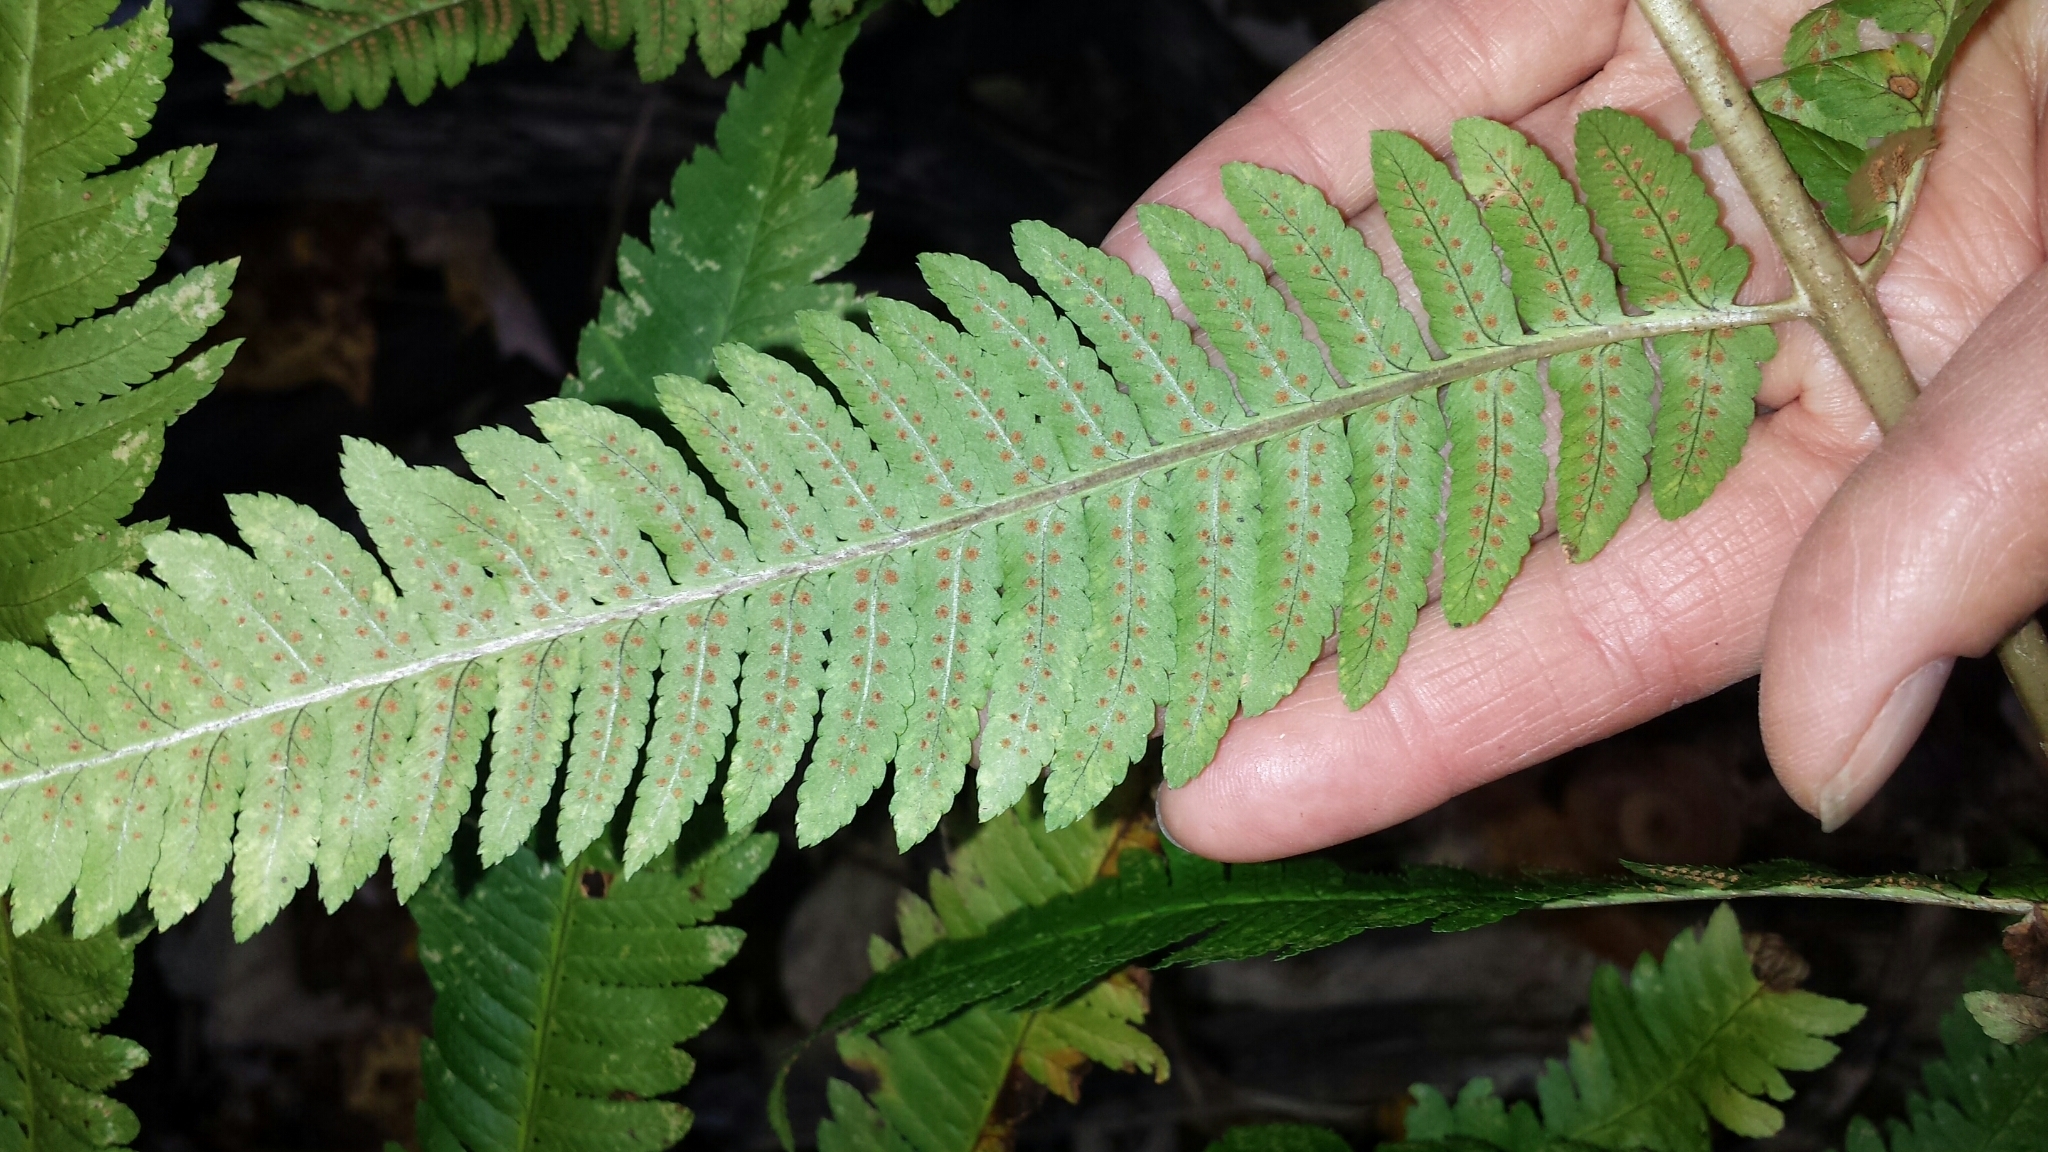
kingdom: Plantae
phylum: Tracheophyta
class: Polypodiopsida
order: Polypodiales
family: Dryopteridaceae
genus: Dryopteris
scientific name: Dryopteris goldieana
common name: Goldie's fern
